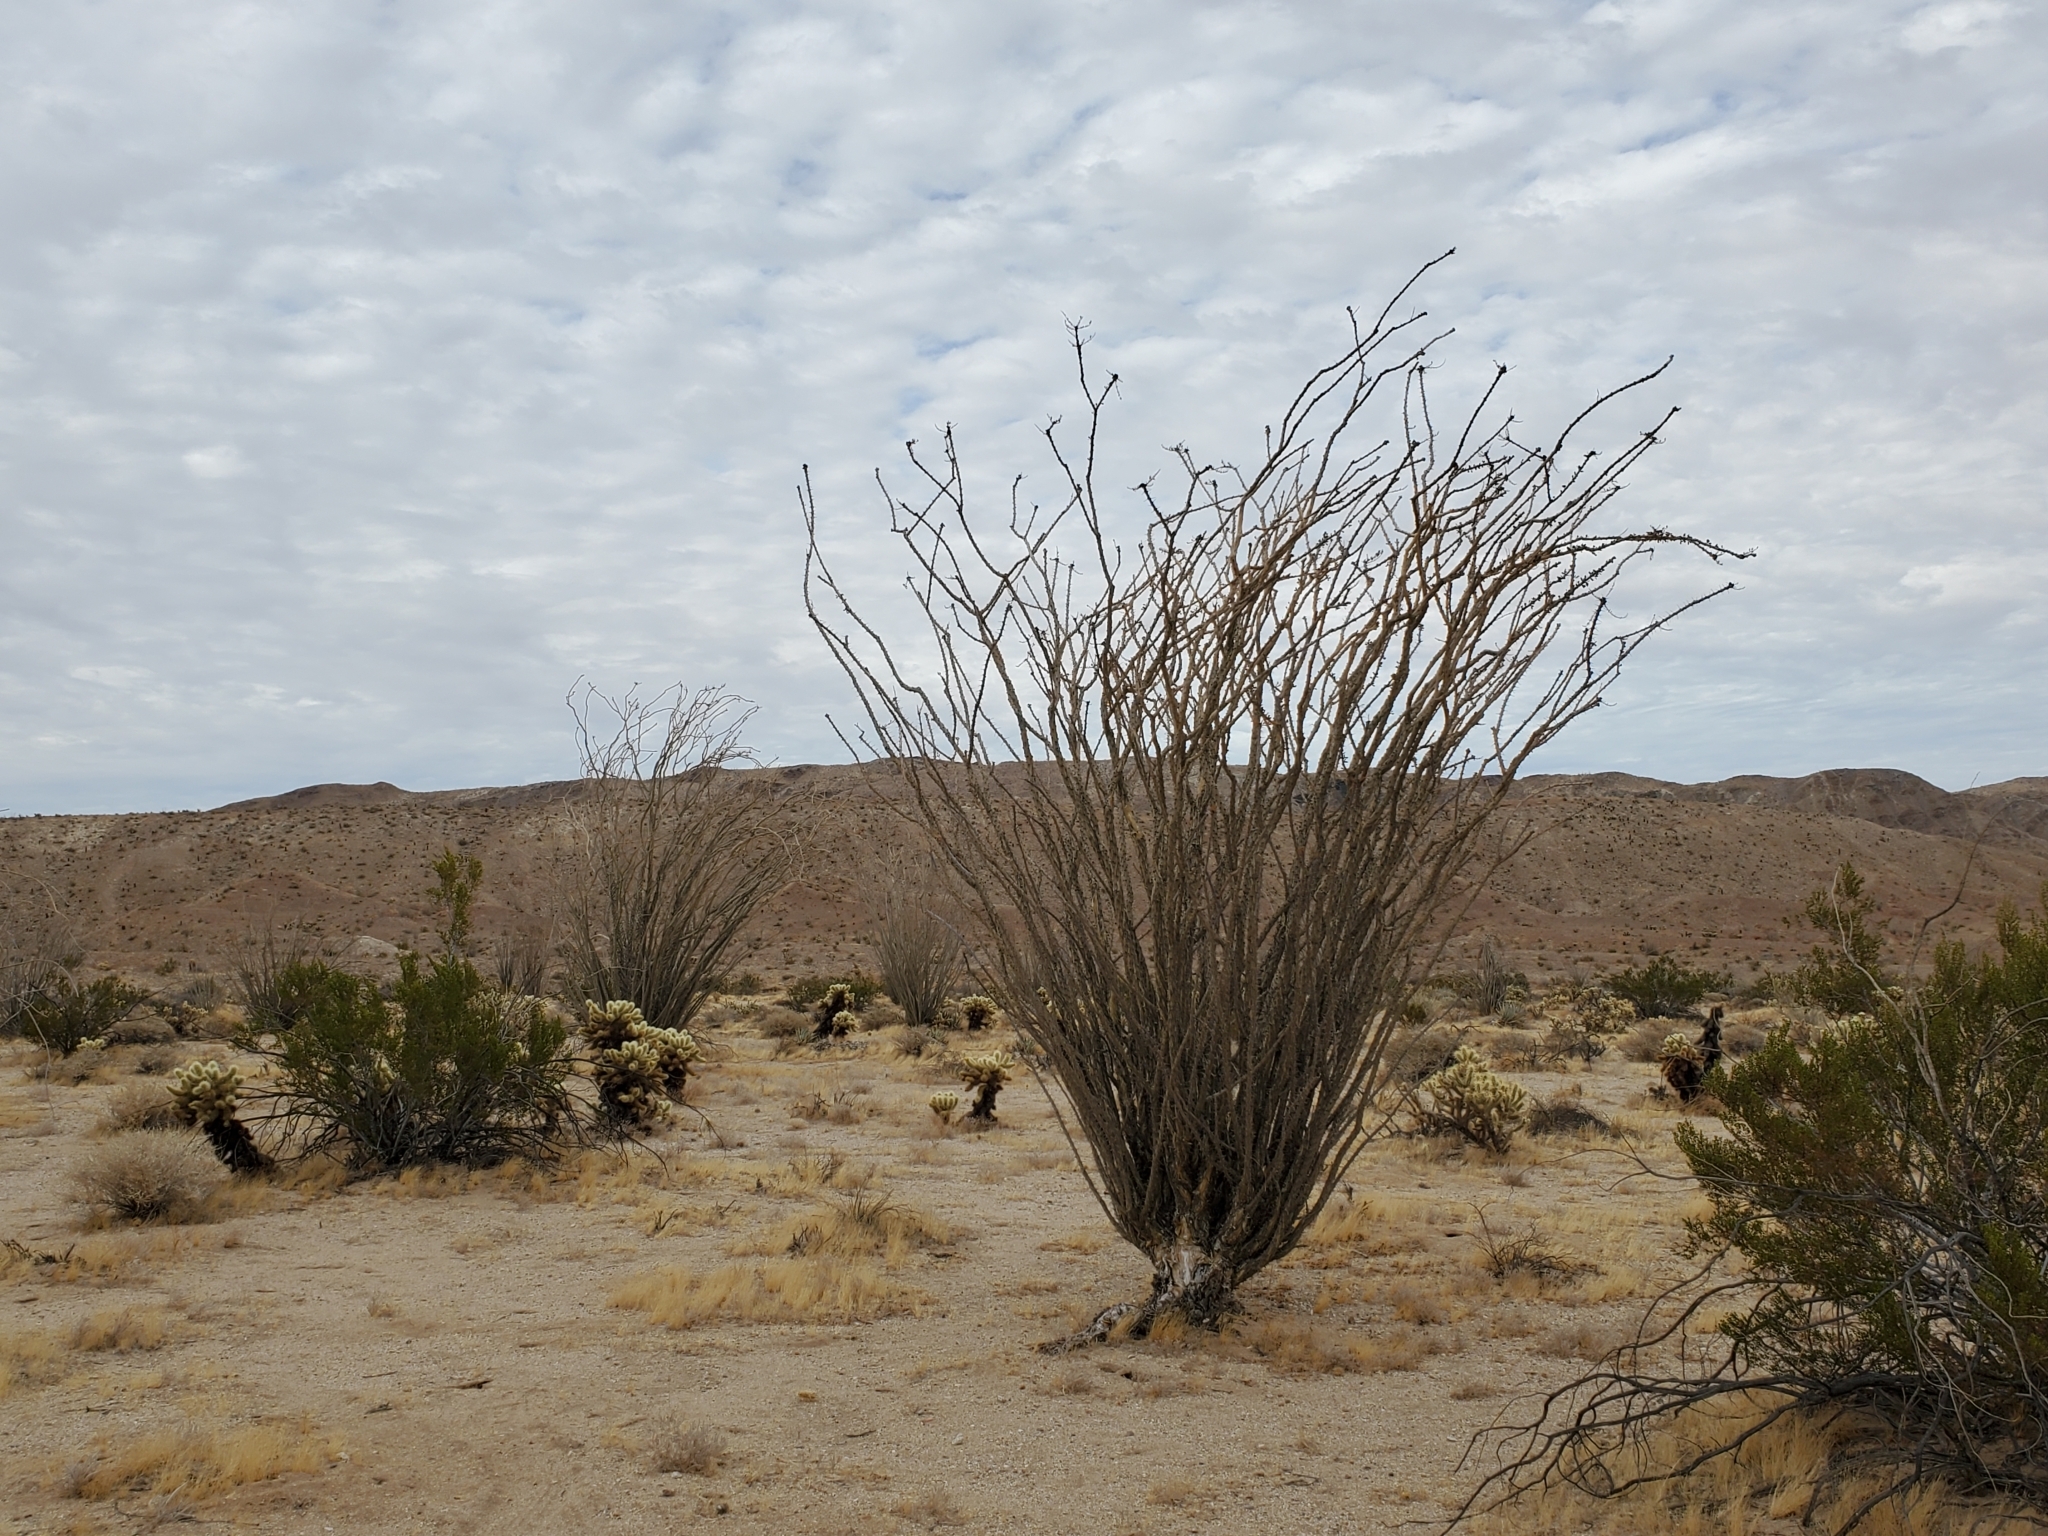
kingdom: Plantae
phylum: Tracheophyta
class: Magnoliopsida
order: Ericales
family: Fouquieriaceae
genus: Fouquieria
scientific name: Fouquieria splendens
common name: Vine-cactus
